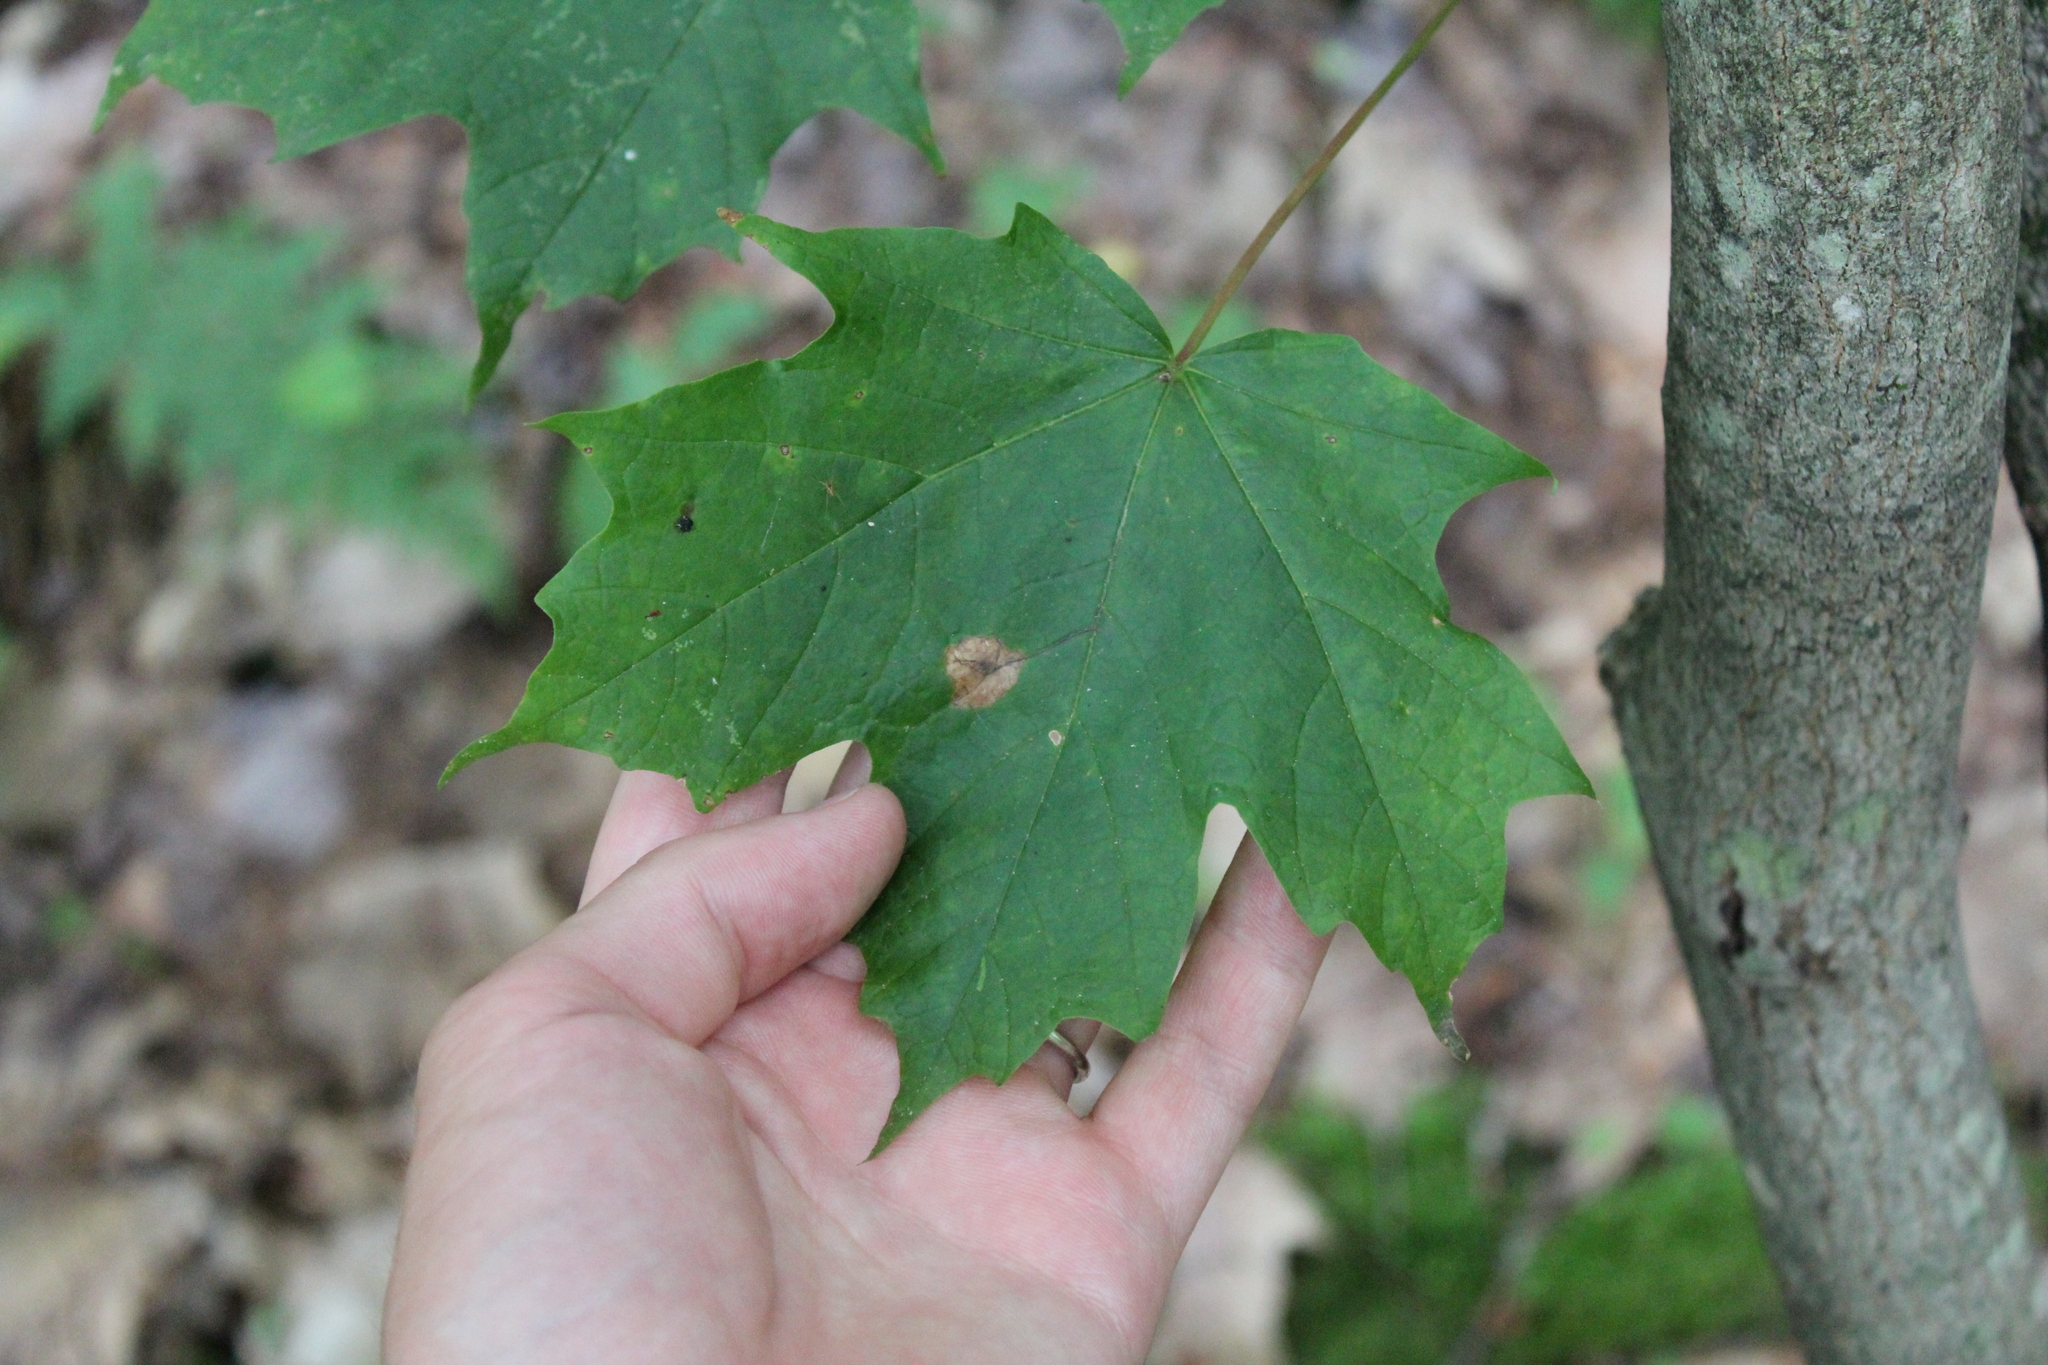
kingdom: Plantae
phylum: Tracheophyta
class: Magnoliopsida
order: Sapindales
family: Sapindaceae
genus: Acer
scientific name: Acer saccharum
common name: Sugar maple
